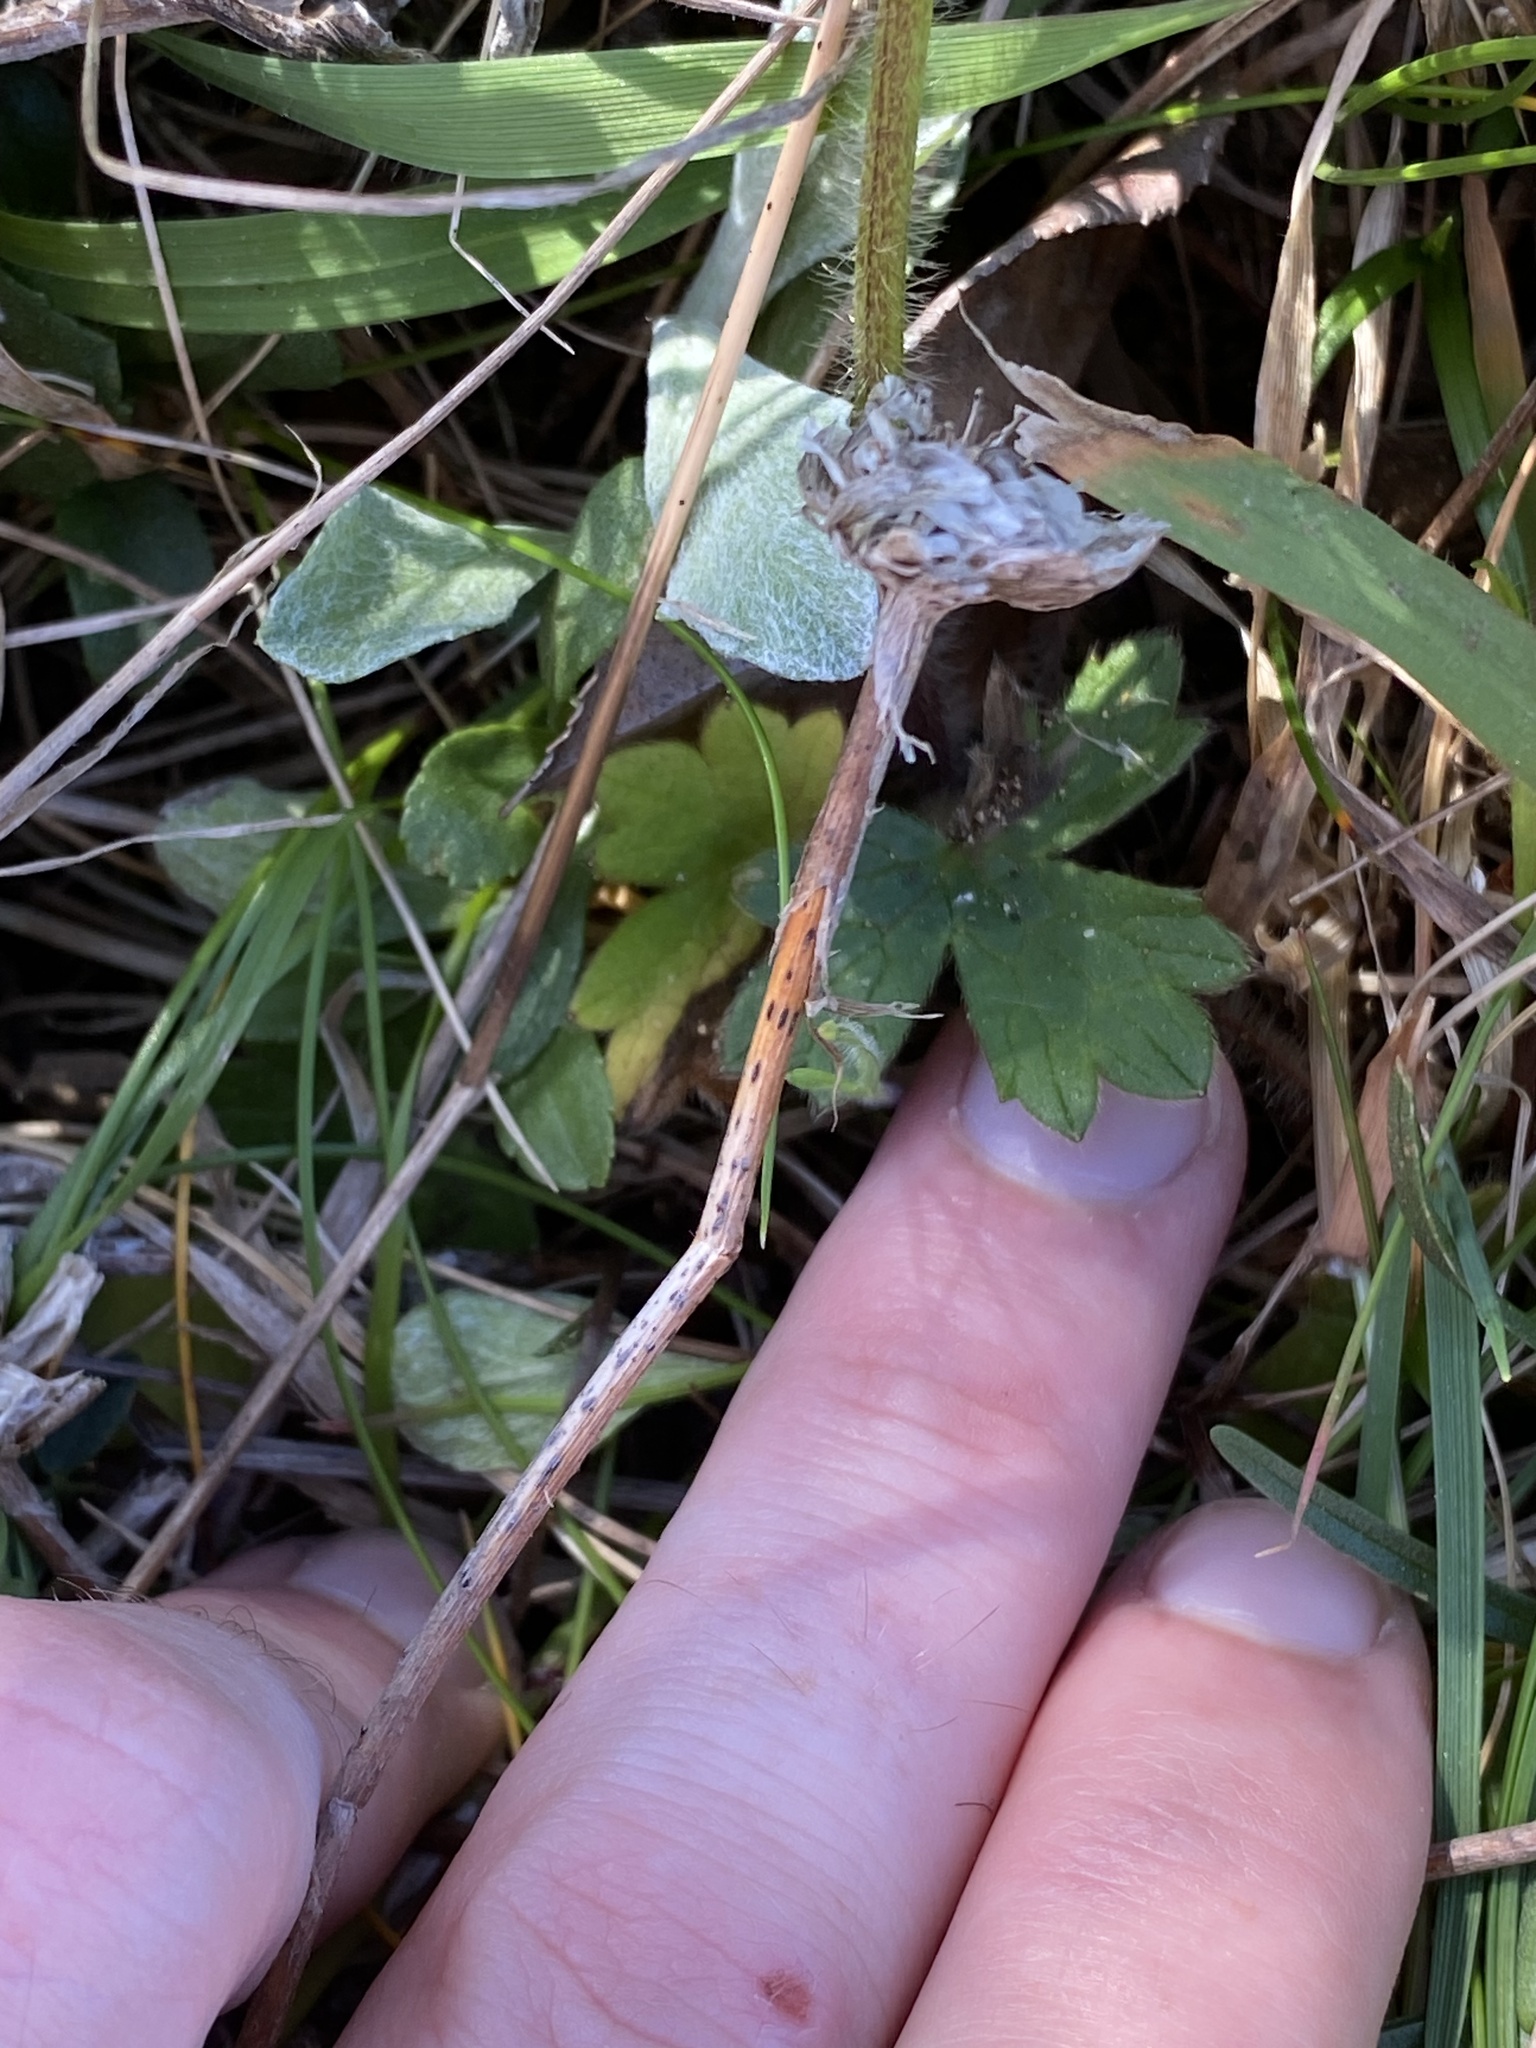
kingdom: Plantae
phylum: Tracheophyta
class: Magnoliopsida
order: Ranunculales
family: Ranunculaceae
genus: Ranunculus
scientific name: Ranunculus californicus
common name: California buttercup
